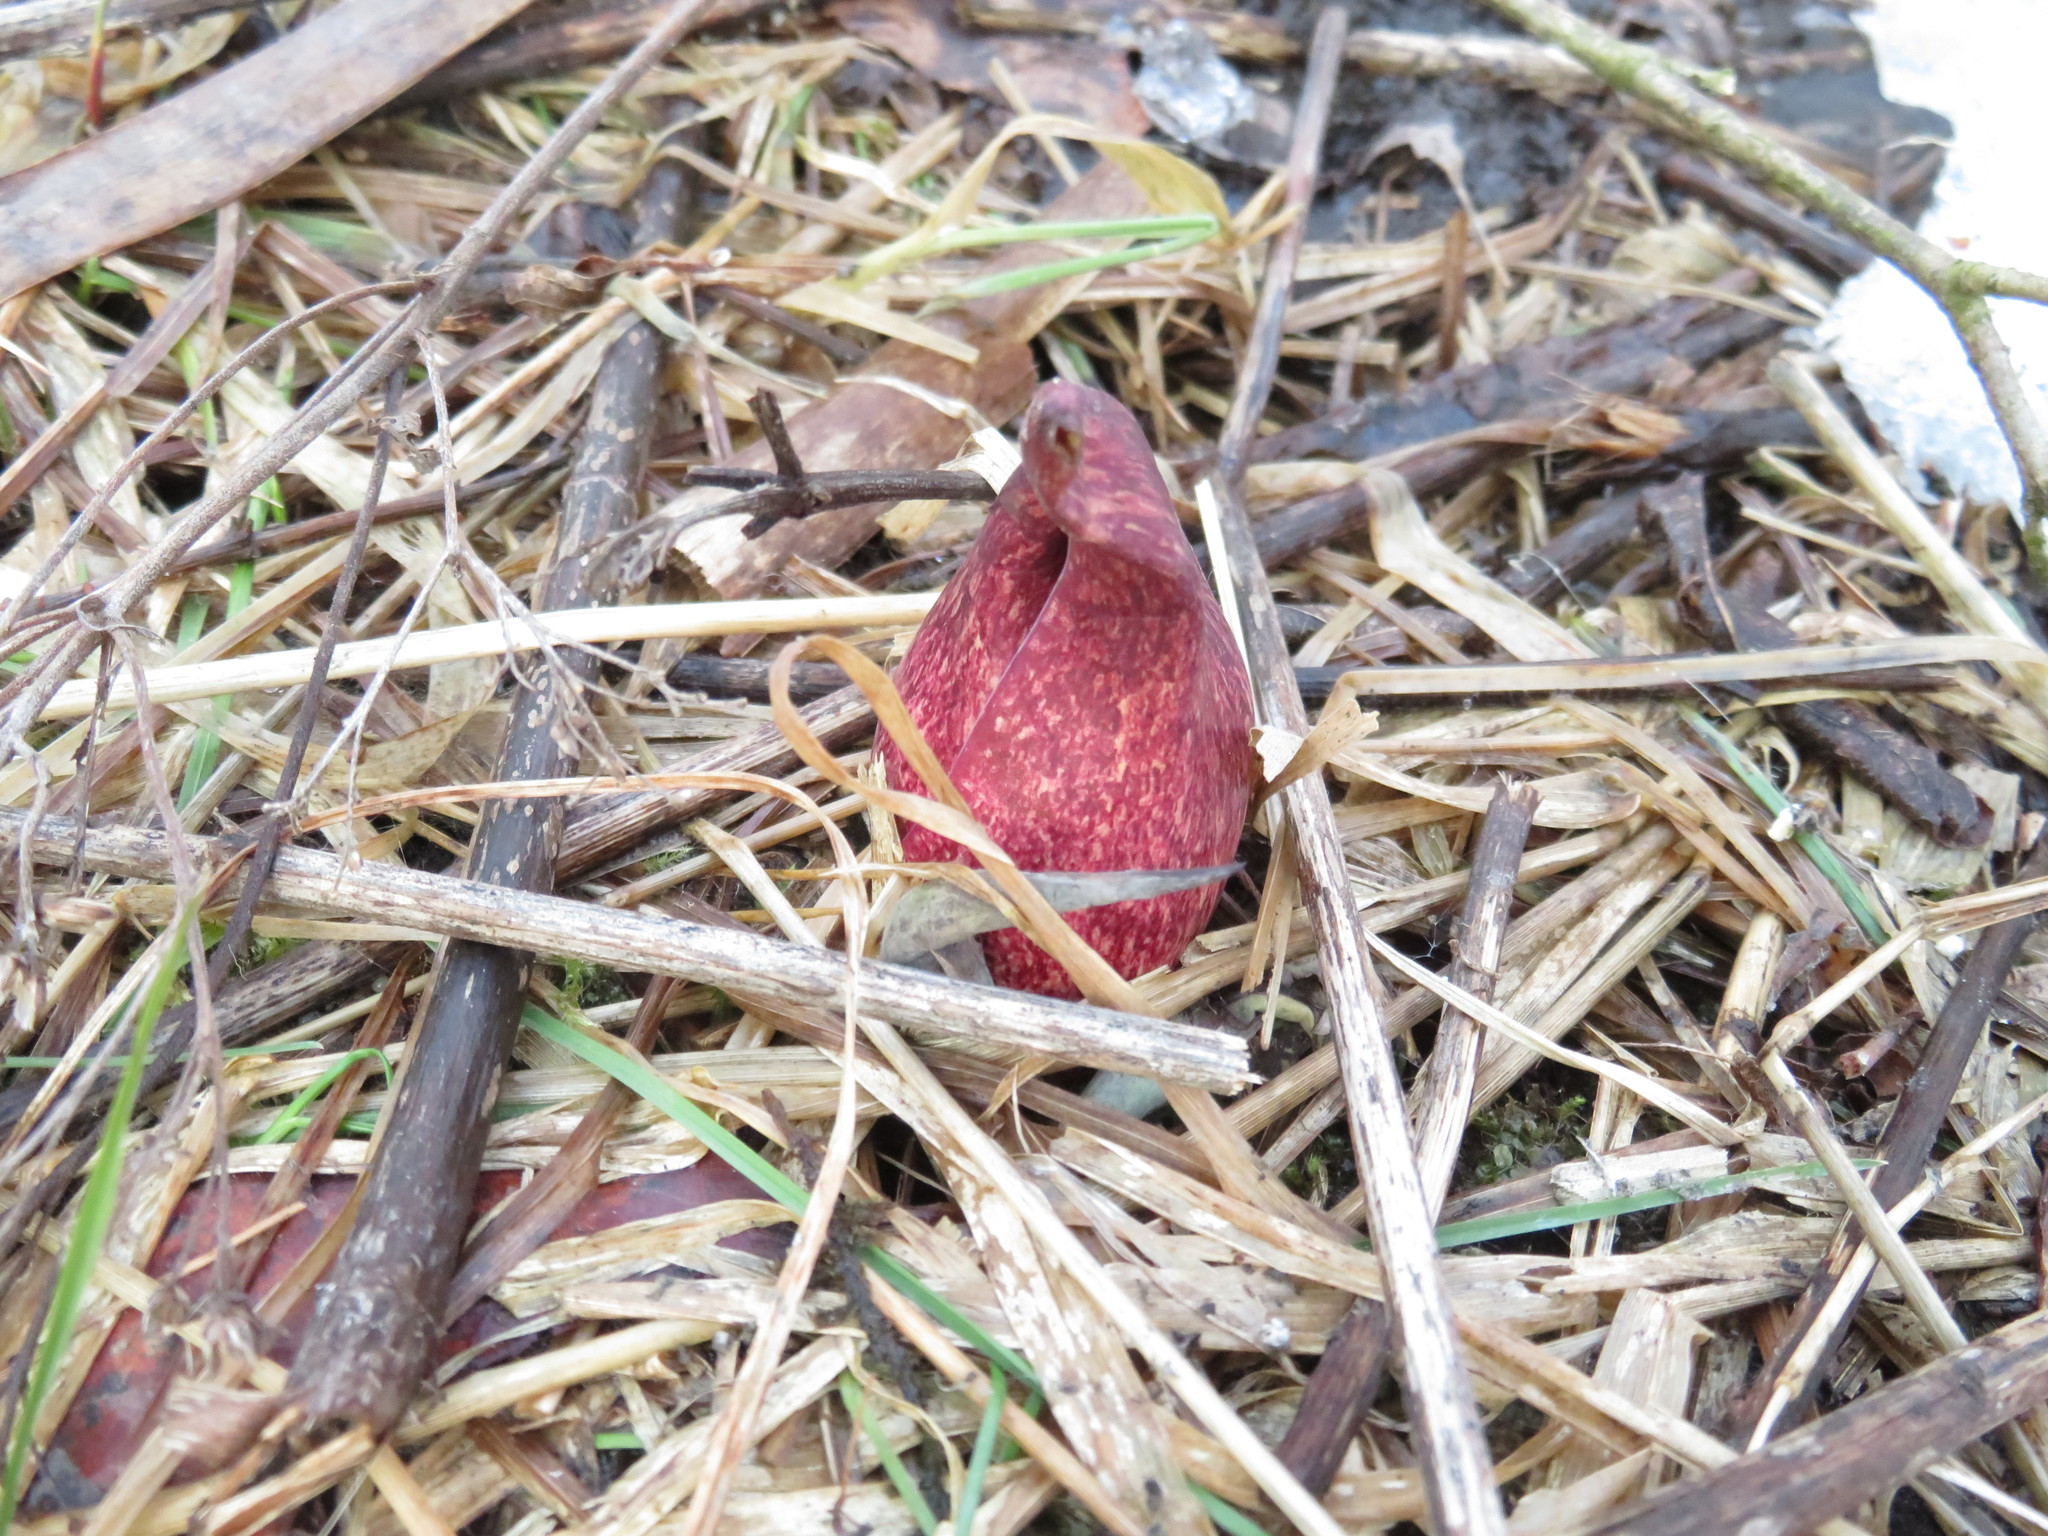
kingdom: Plantae
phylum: Tracheophyta
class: Liliopsida
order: Alismatales
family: Araceae
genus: Symplocarpus
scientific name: Symplocarpus foetidus
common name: Eastern skunk cabbage
